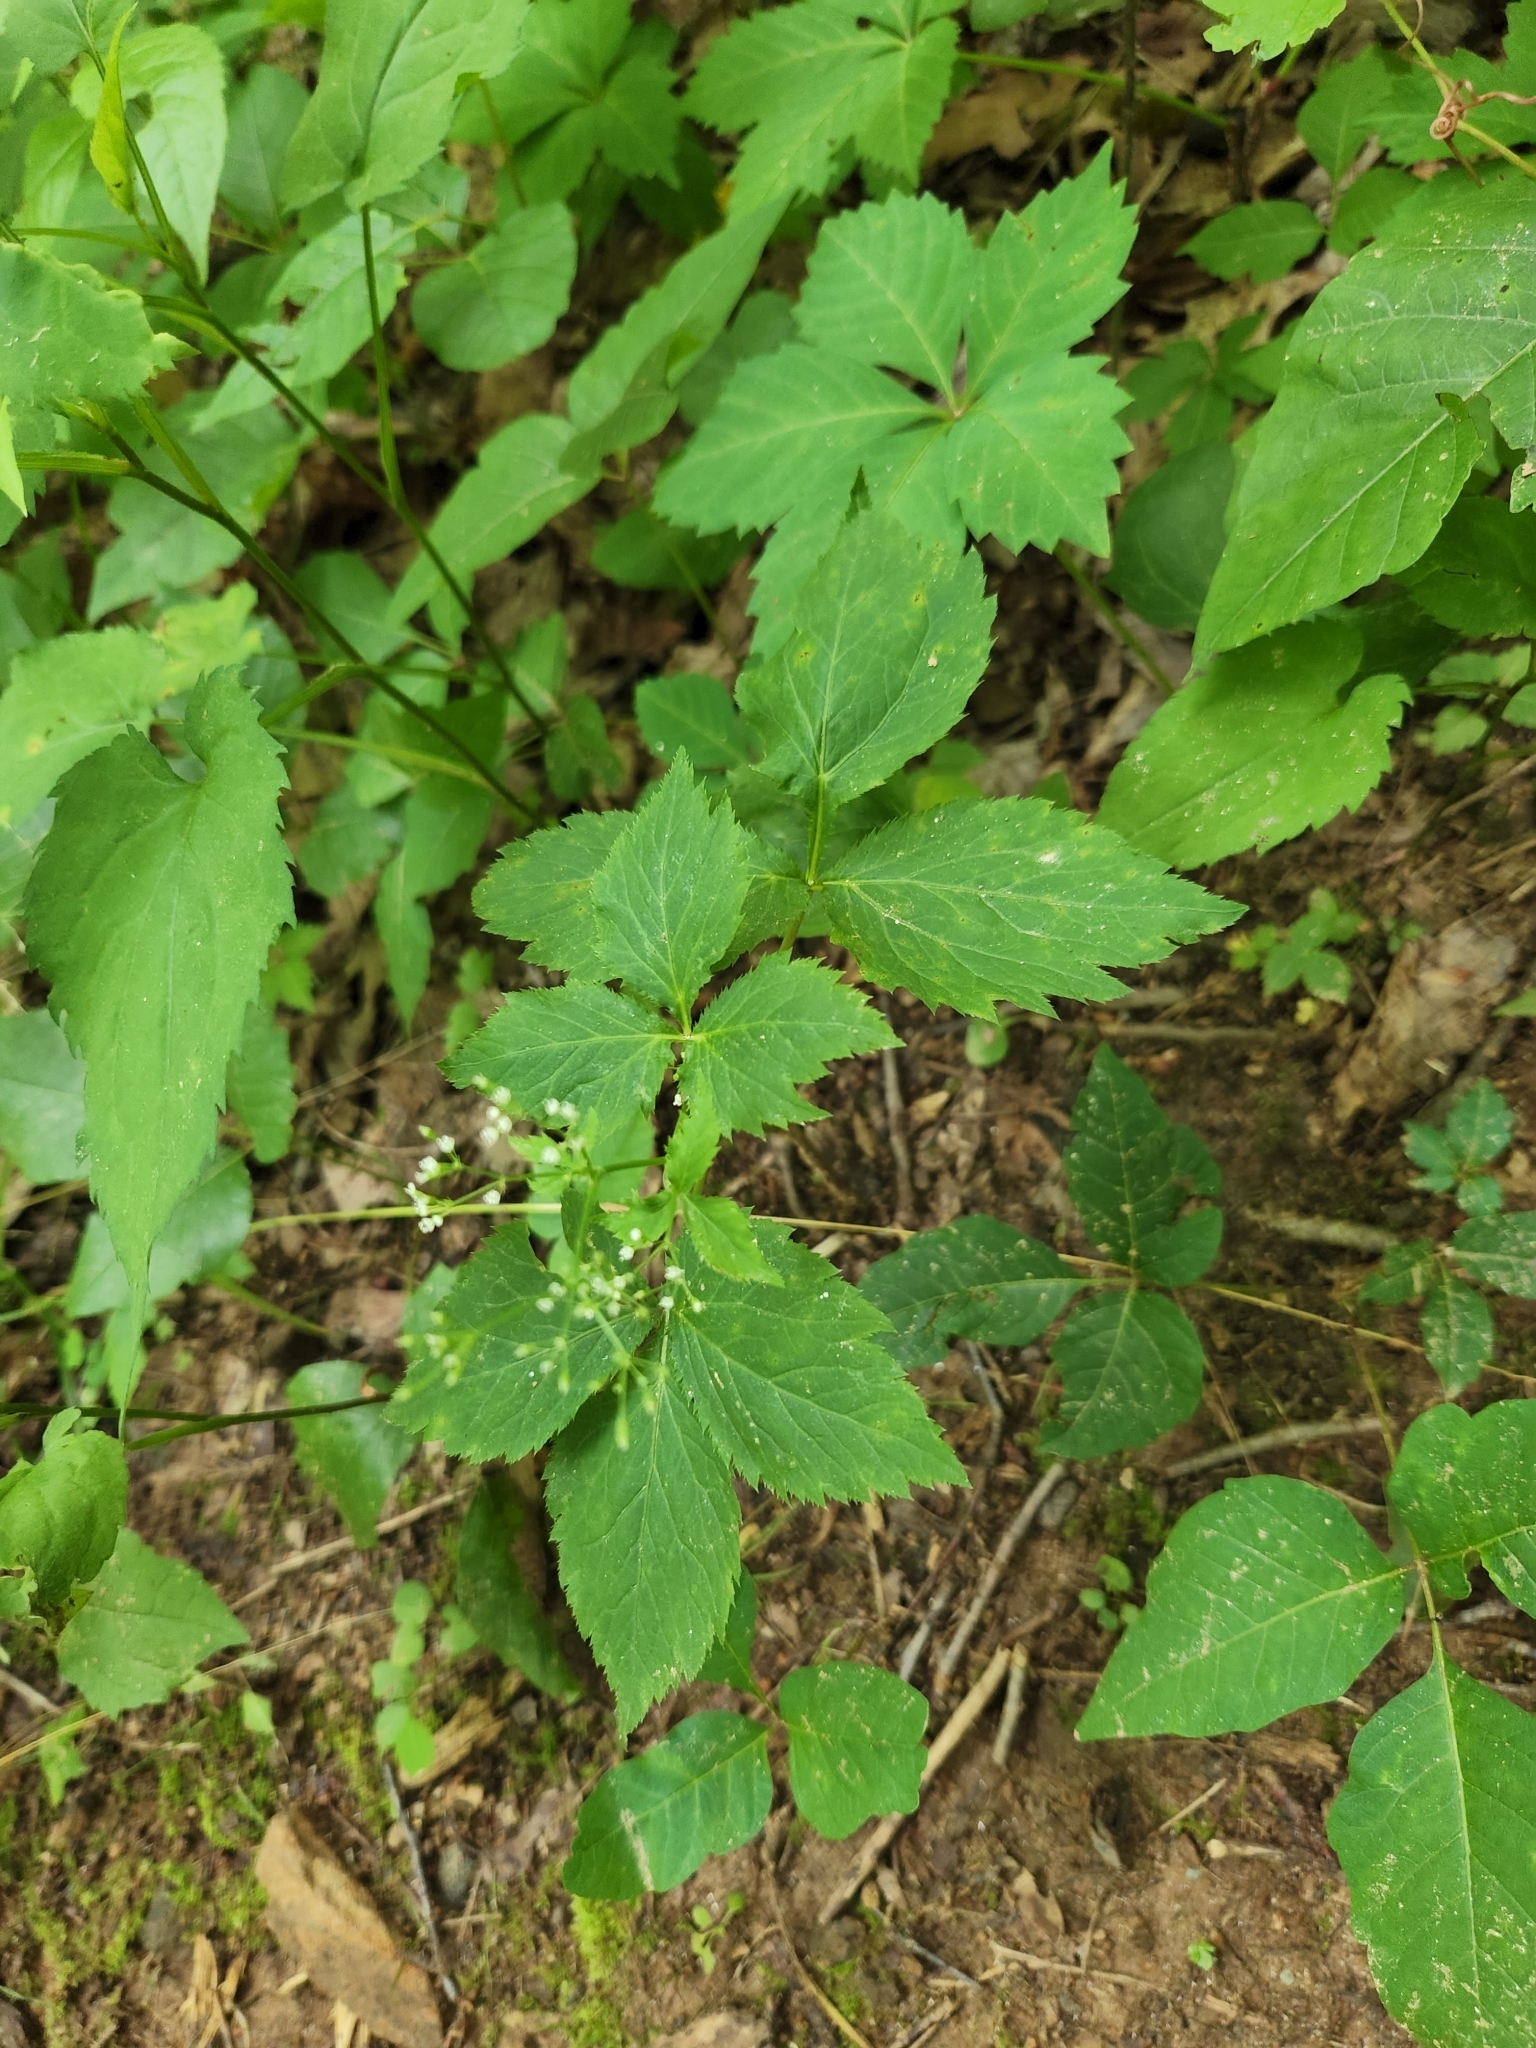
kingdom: Plantae
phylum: Tracheophyta
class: Magnoliopsida
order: Apiales
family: Apiaceae
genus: Cryptotaenia
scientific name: Cryptotaenia canadensis
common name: Honewort
